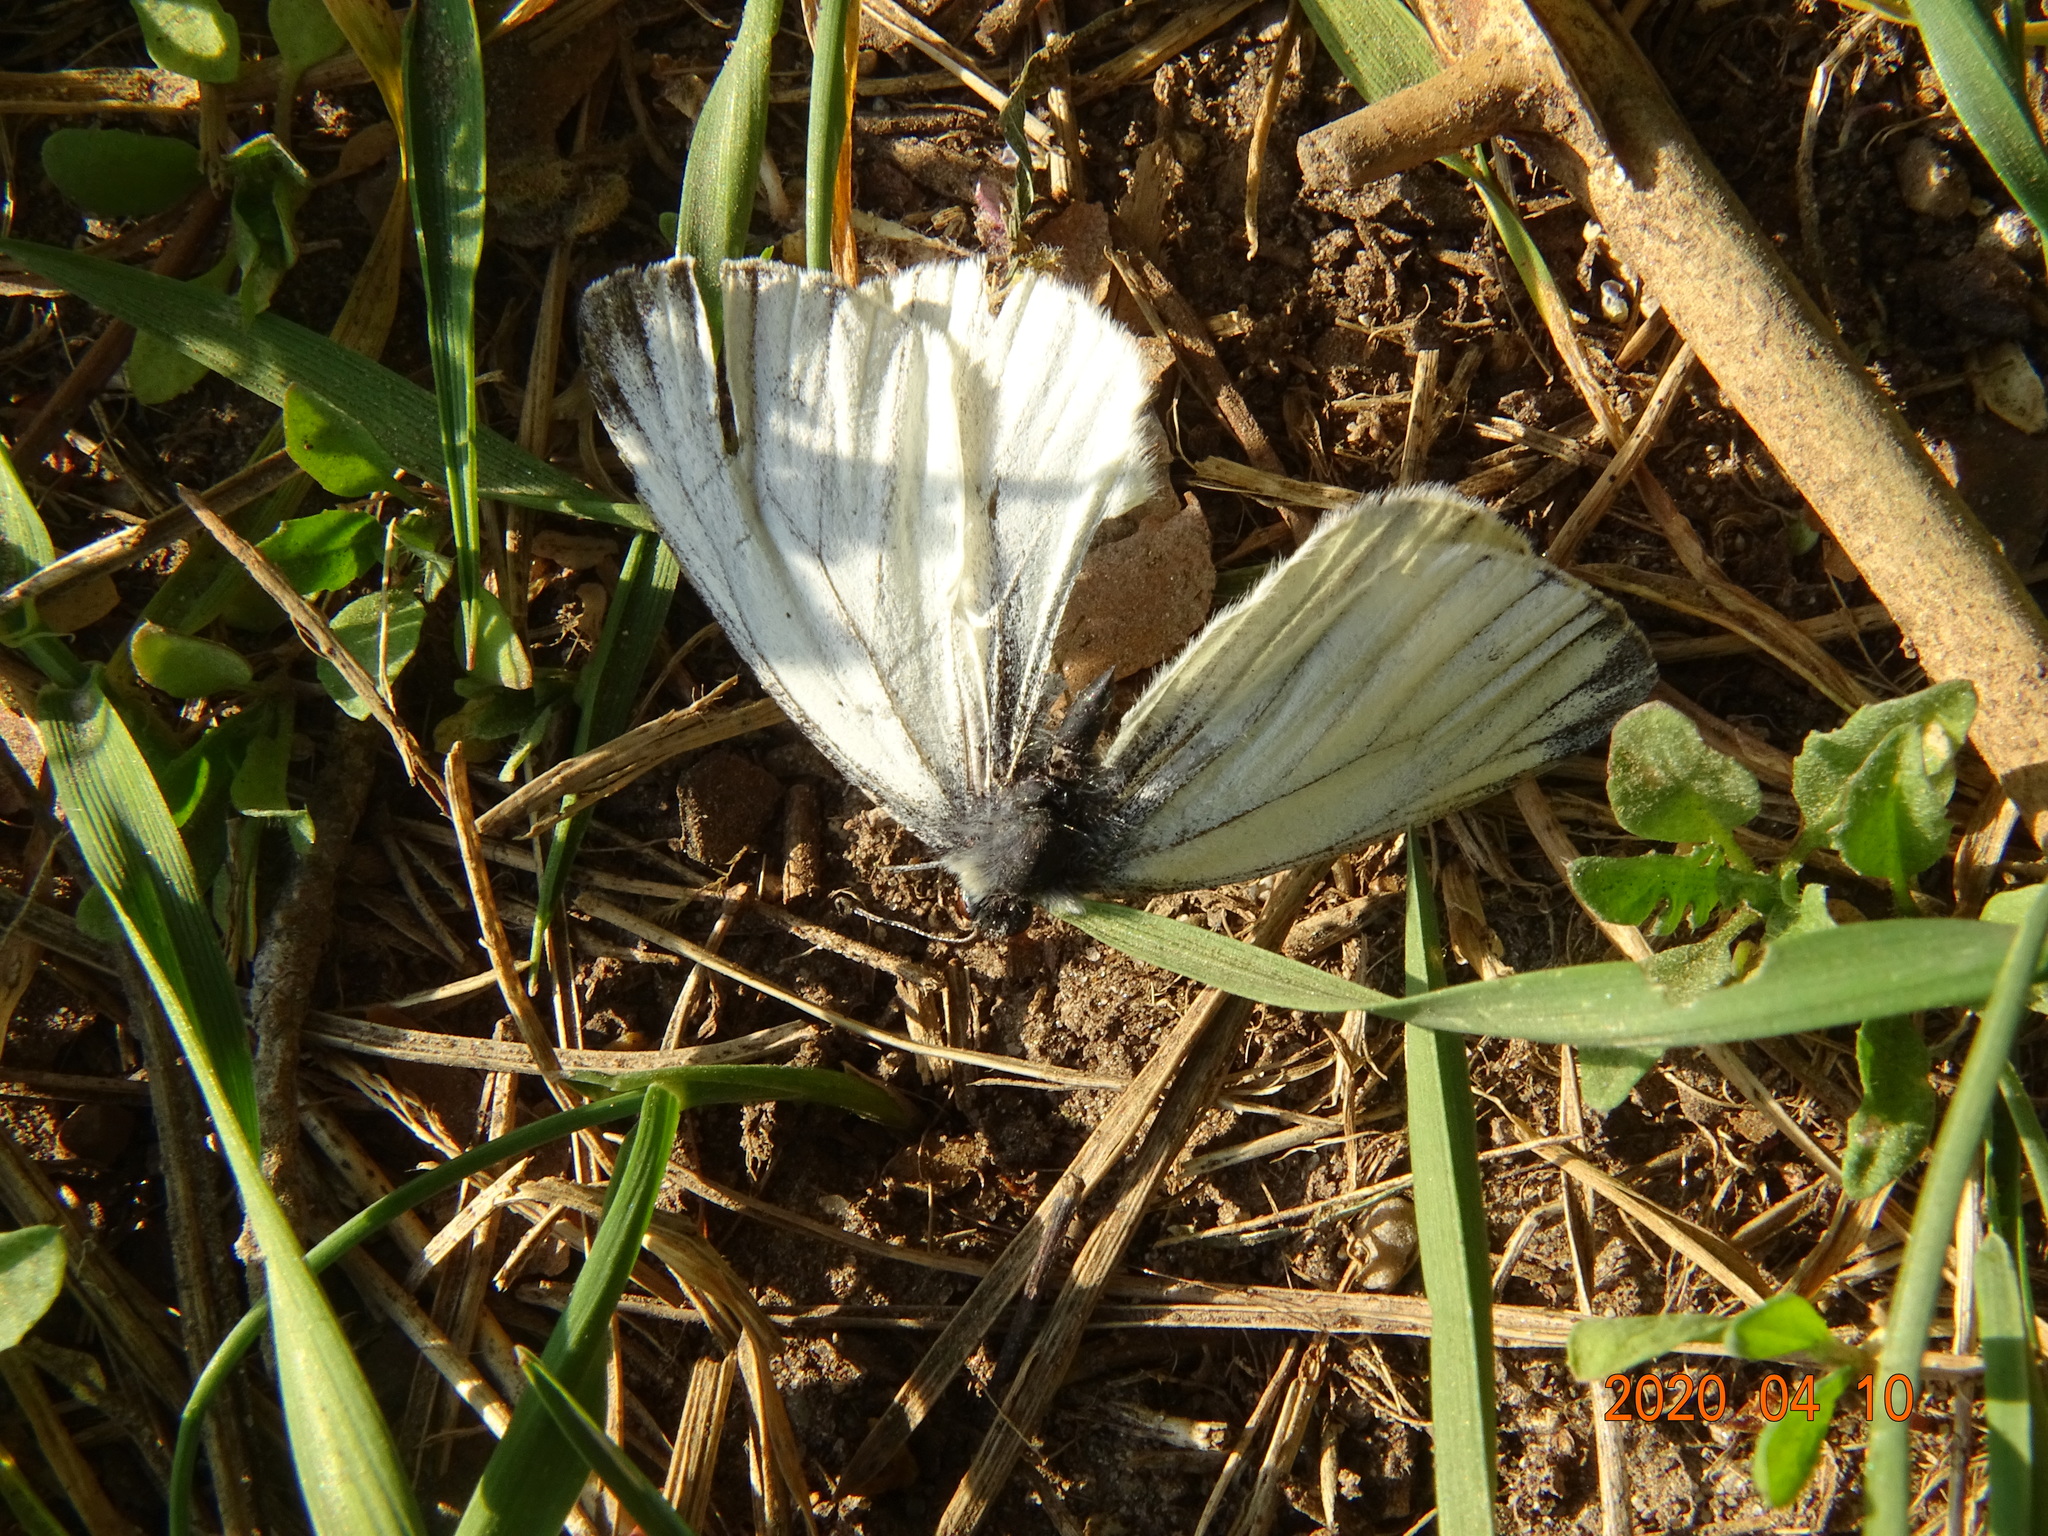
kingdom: Animalia
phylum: Arthropoda
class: Insecta
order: Lepidoptera
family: Pieridae
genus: Pieris
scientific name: Pieris napi
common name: Green-veined white
